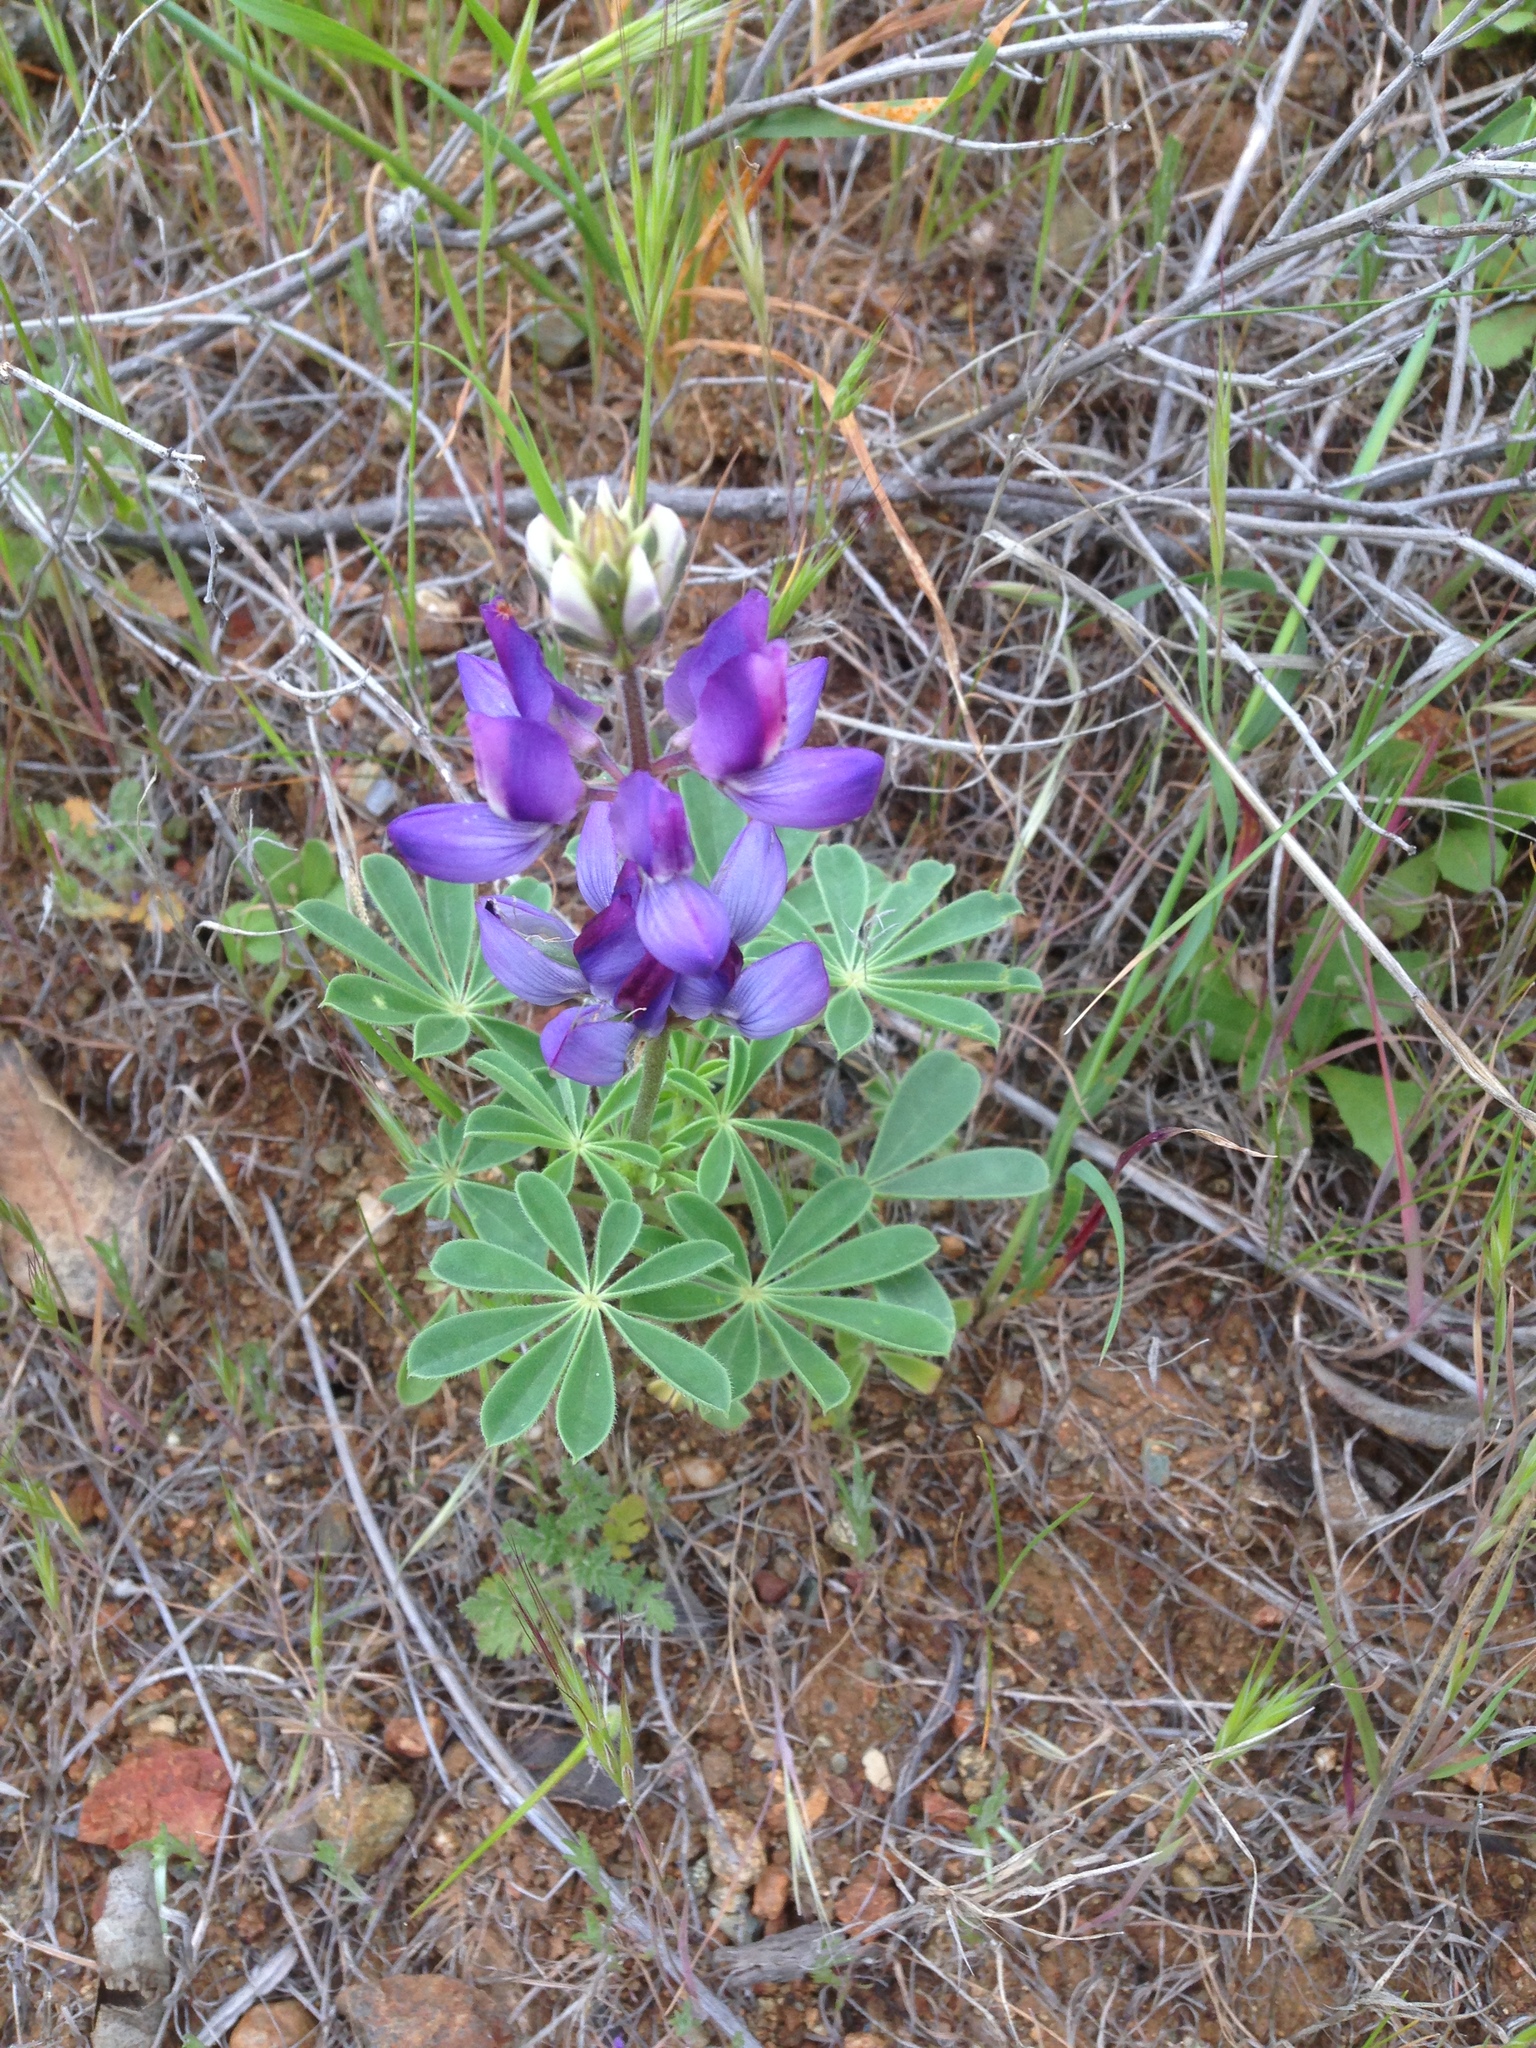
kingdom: Plantae
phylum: Tracheophyta
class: Magnoliopsida
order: Fabales
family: Fabaceae
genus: Lupinus
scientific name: Lupinus succulentus
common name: Arroyo lupine
